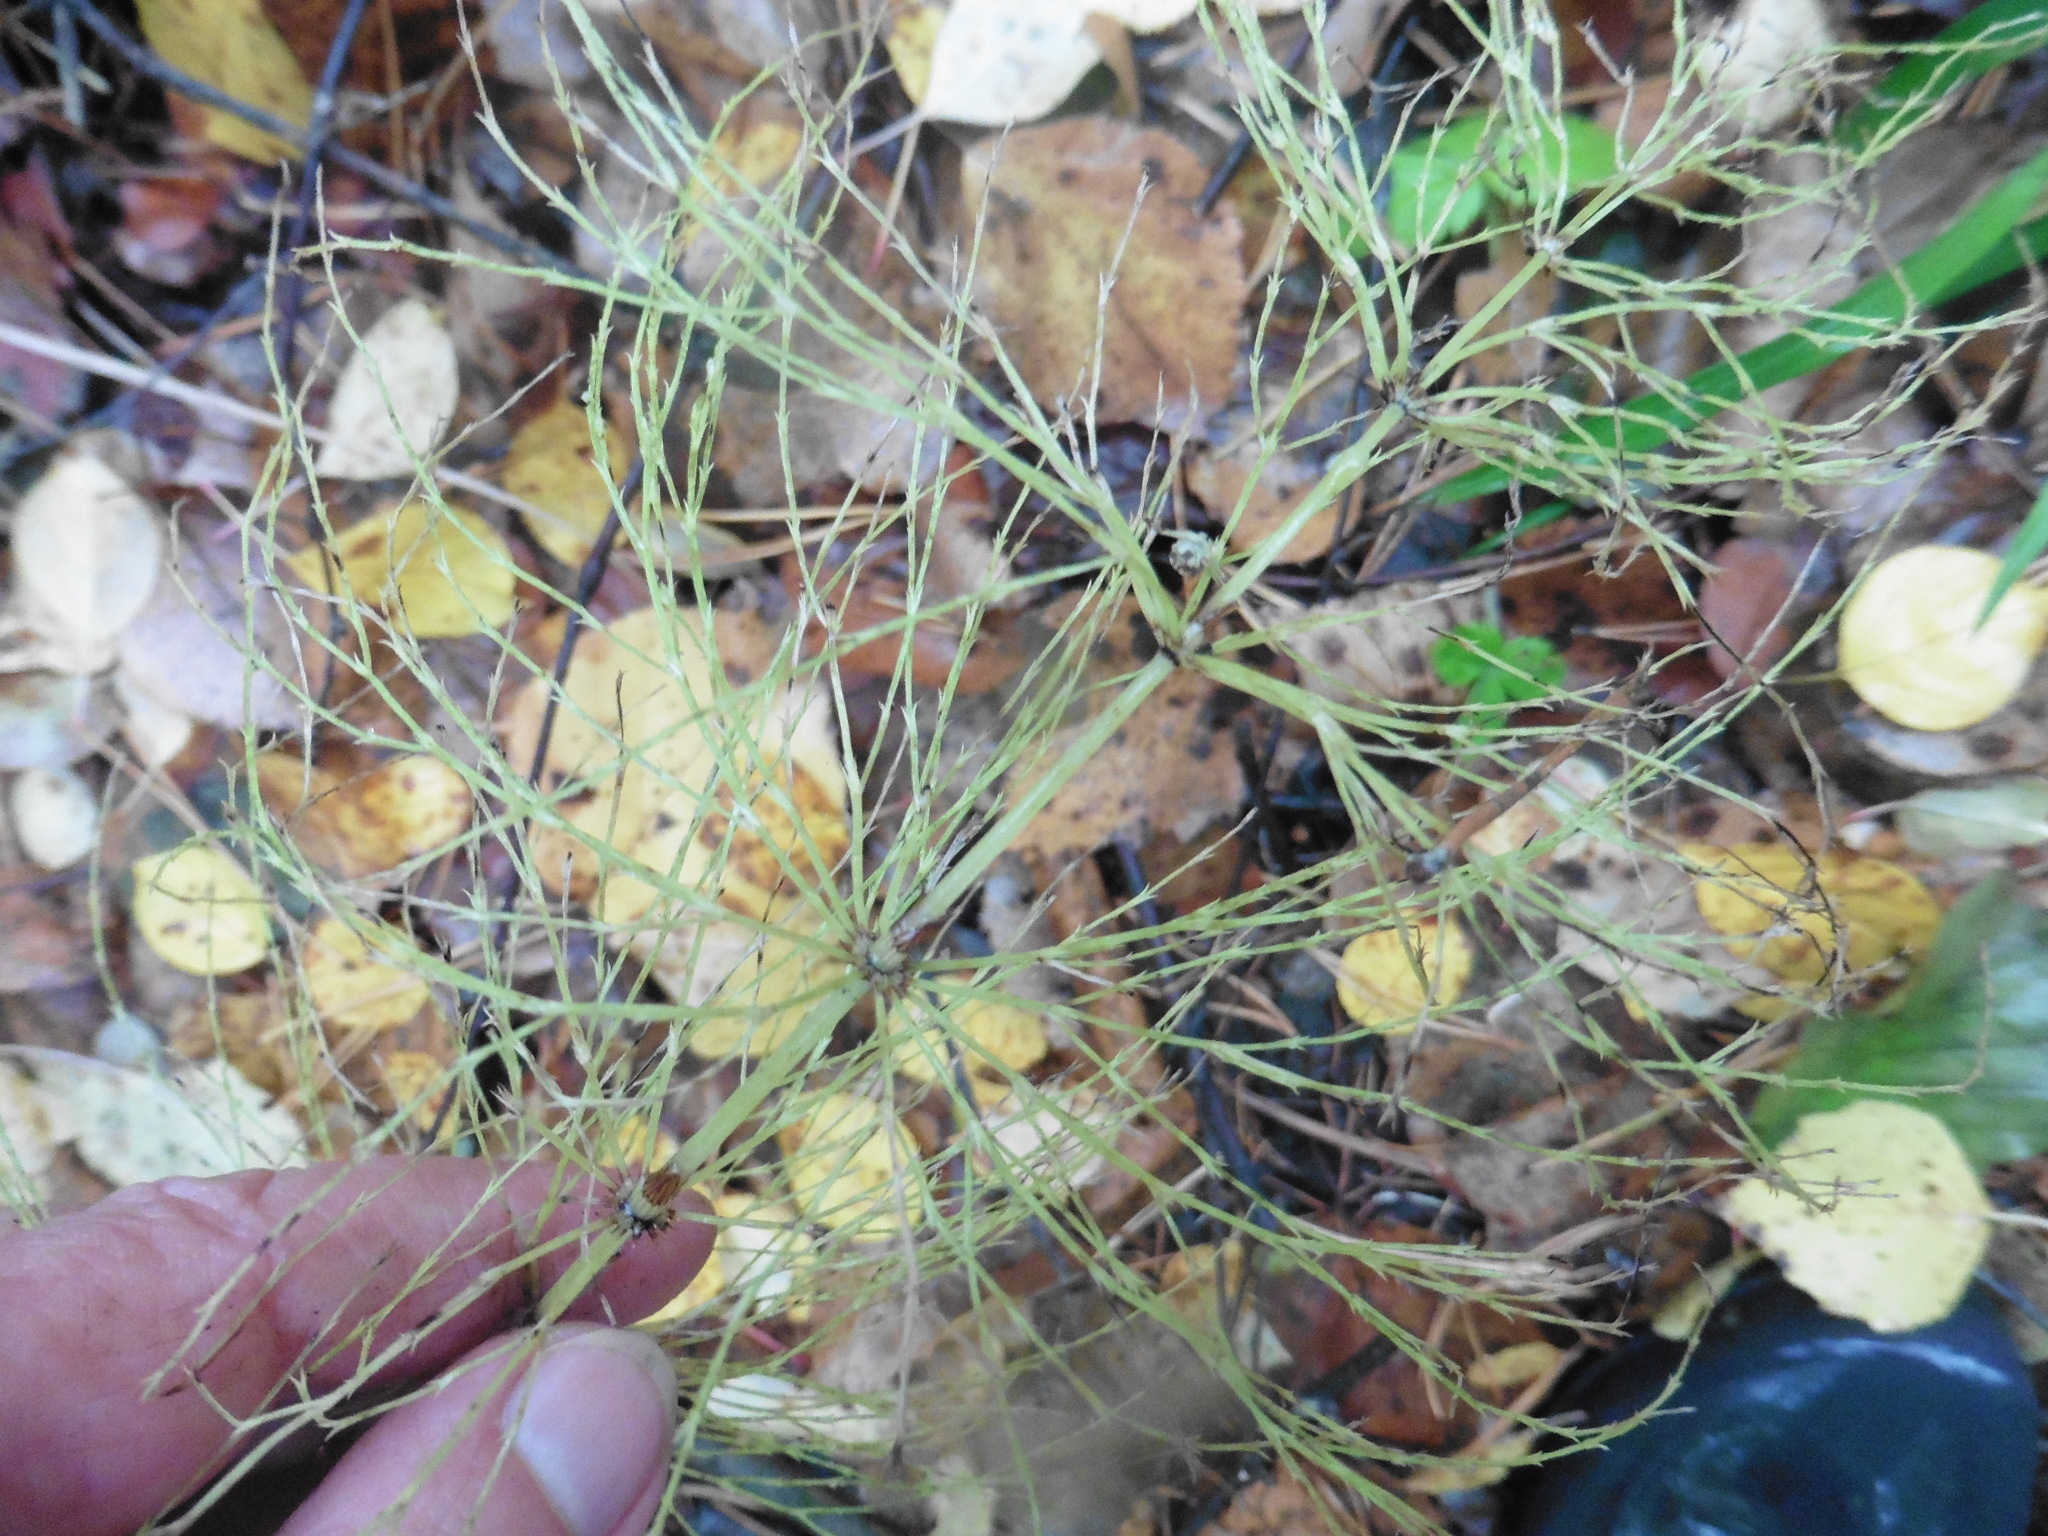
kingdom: Plantae
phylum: Tracheophyta
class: Polypodiopsida
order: Equisetales
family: Equisetaceae
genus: Equisetum
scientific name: Equisetum sylvaticum
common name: Wood horsetail
